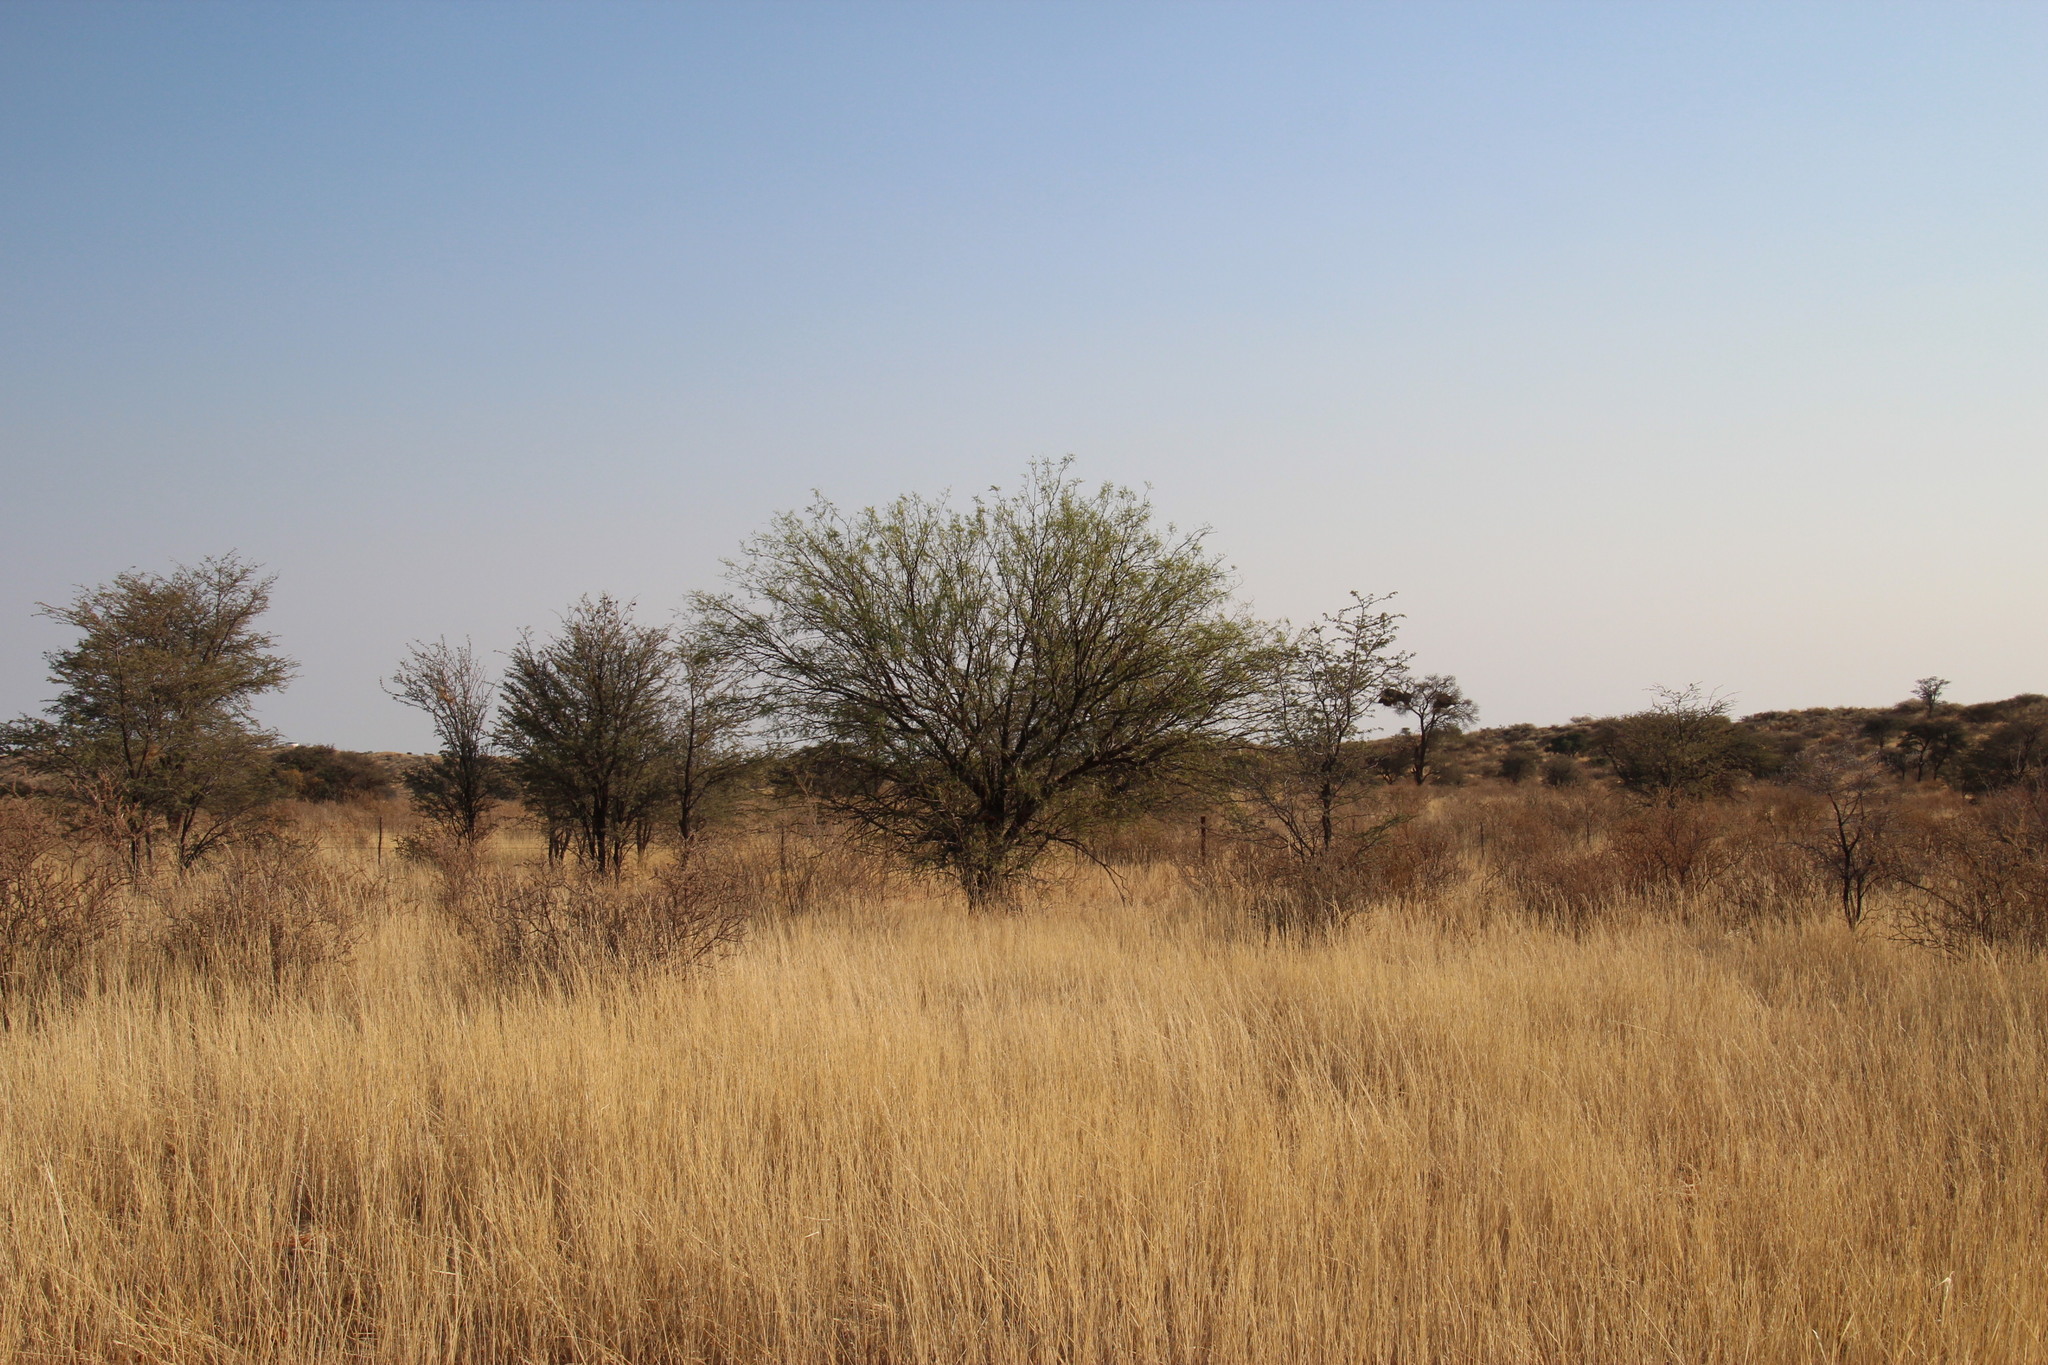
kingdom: Plantae
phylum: Tracheophyta
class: Magnoliopsida
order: Fabales
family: Fabaceae
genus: Prosopis
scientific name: Prosopis glandulosa
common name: Honey mesquite
